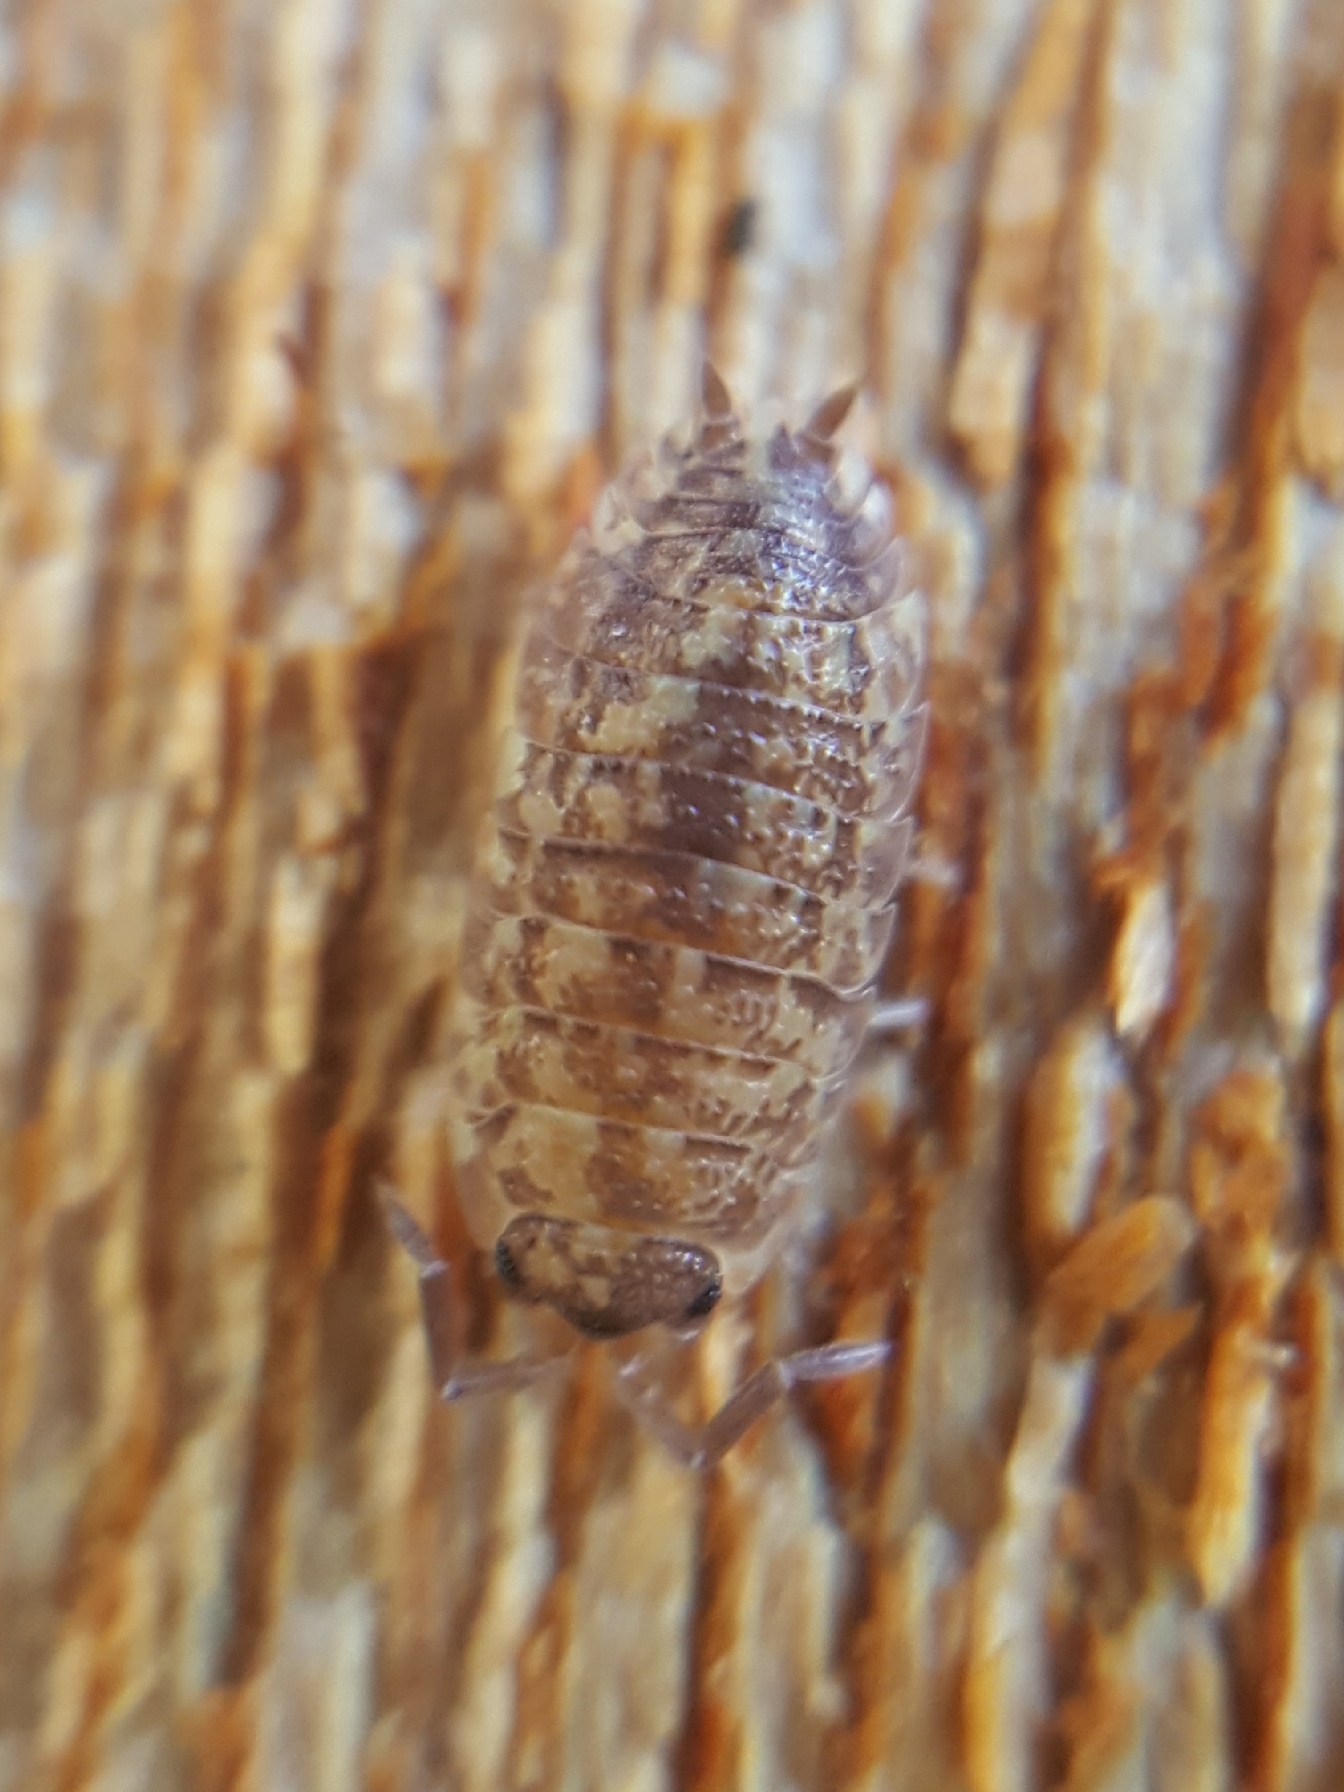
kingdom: Animalia
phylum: Arthropoda
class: Malacostraca
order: Isopoda
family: Porcellionidae
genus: Porcellio
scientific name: Porcellio scaber
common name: Common rough woodlouse
